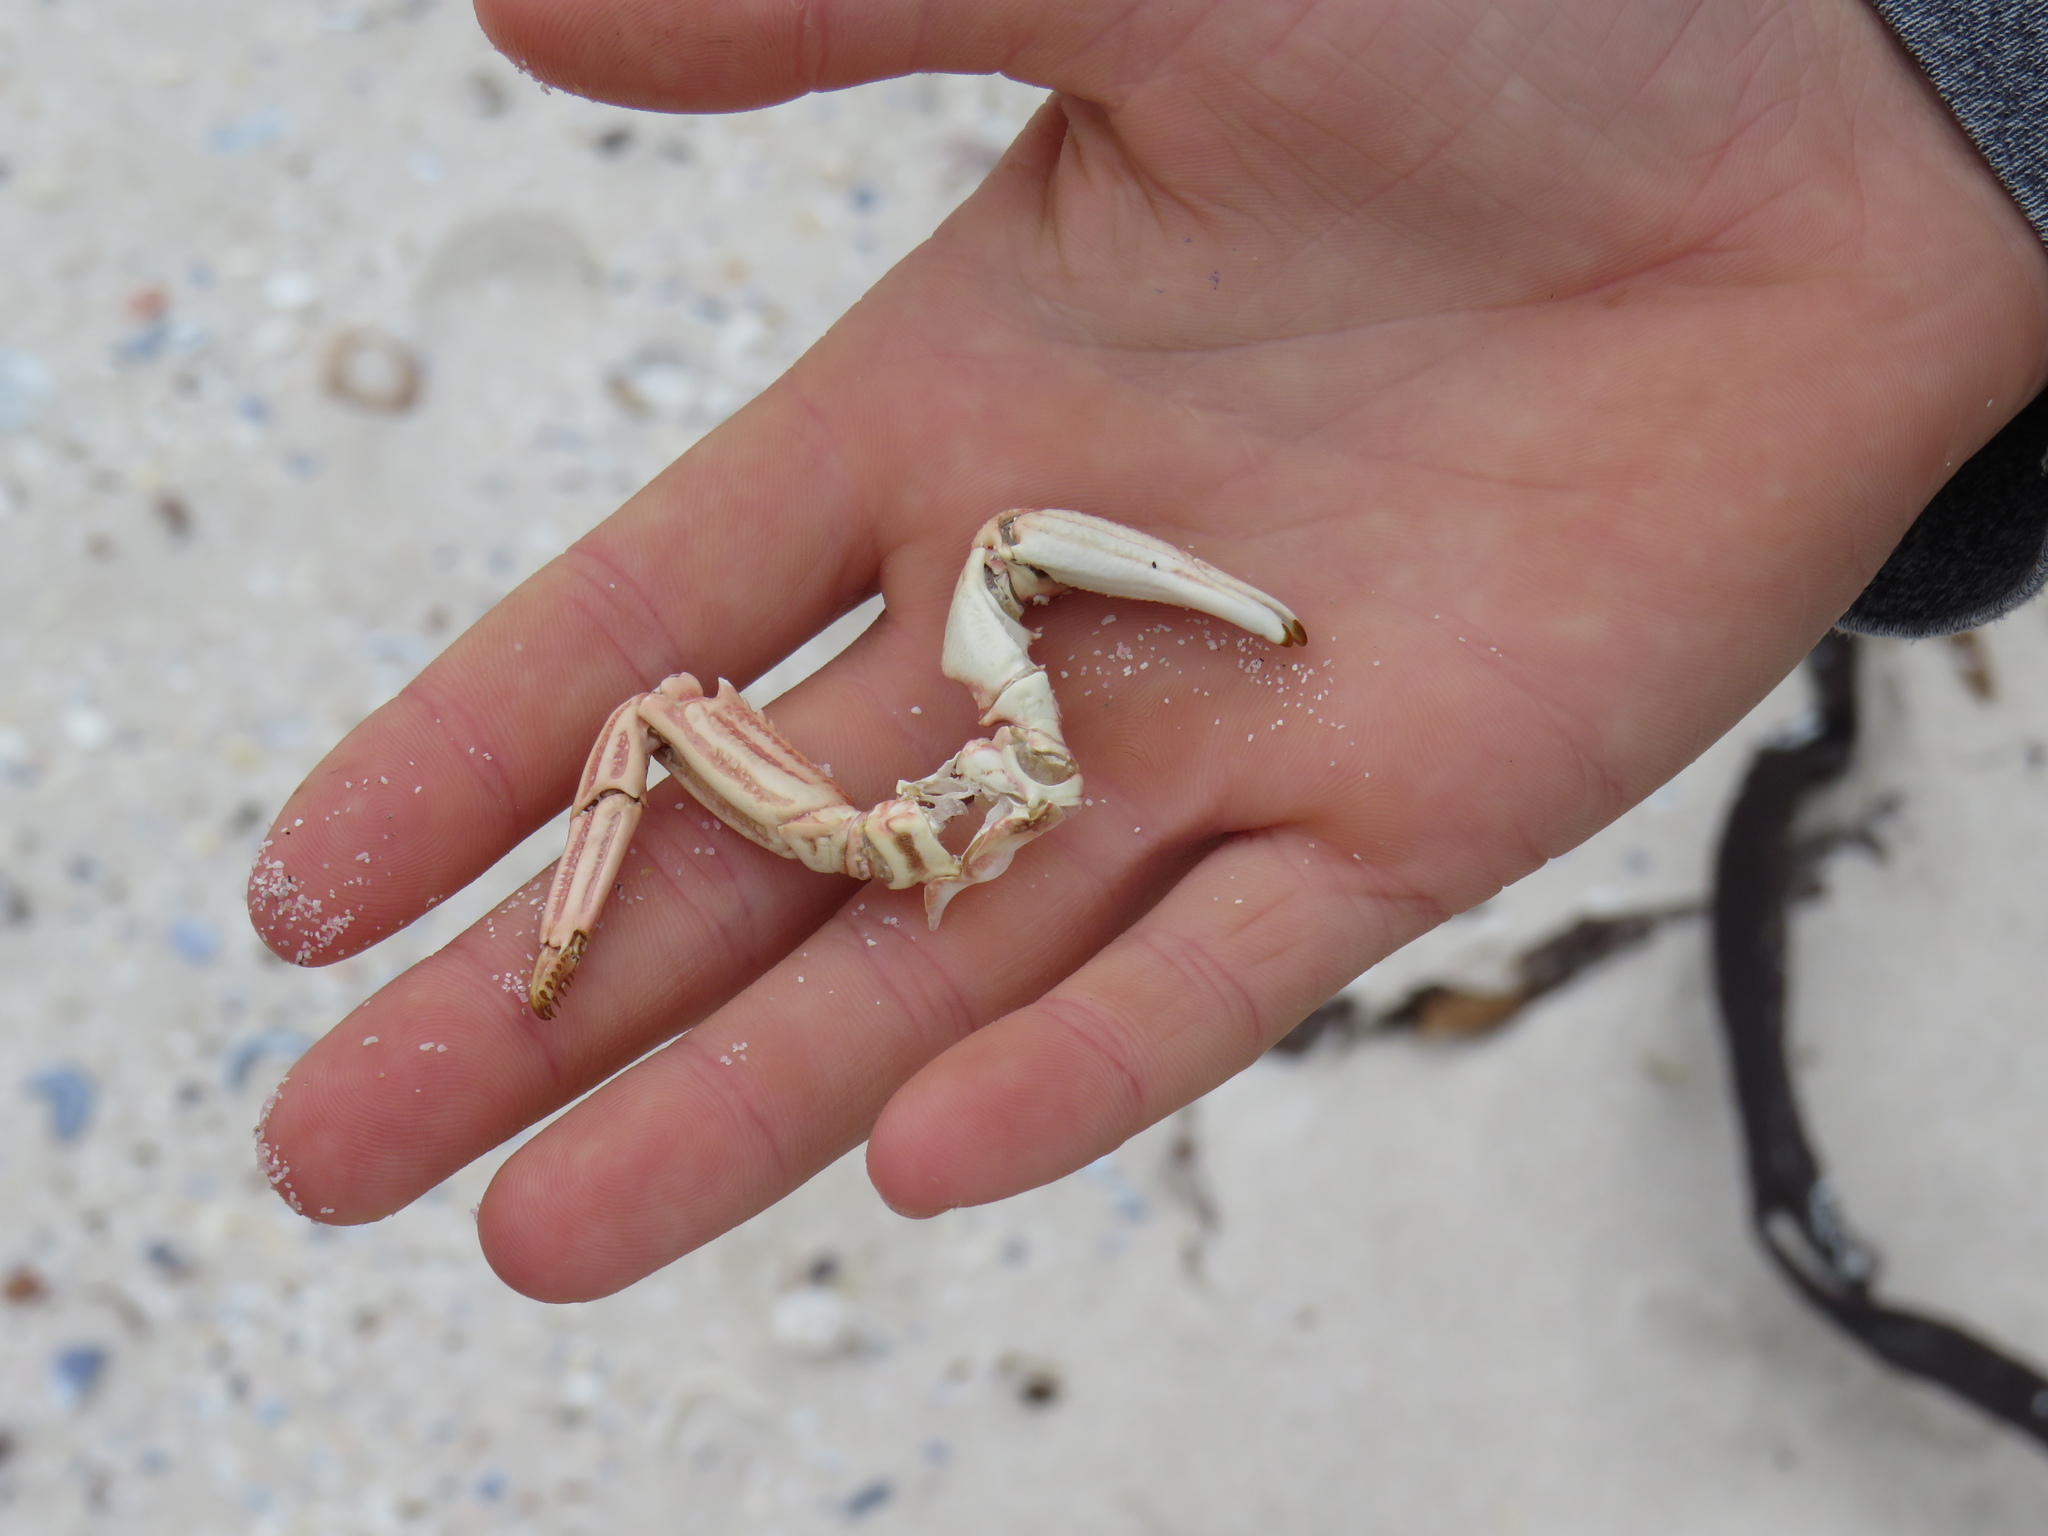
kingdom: Animalia
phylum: Arthropoda
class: Malacostraca
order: Decapoda
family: Plagusiidae
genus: Guinusia
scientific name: Guinusia chabrus
